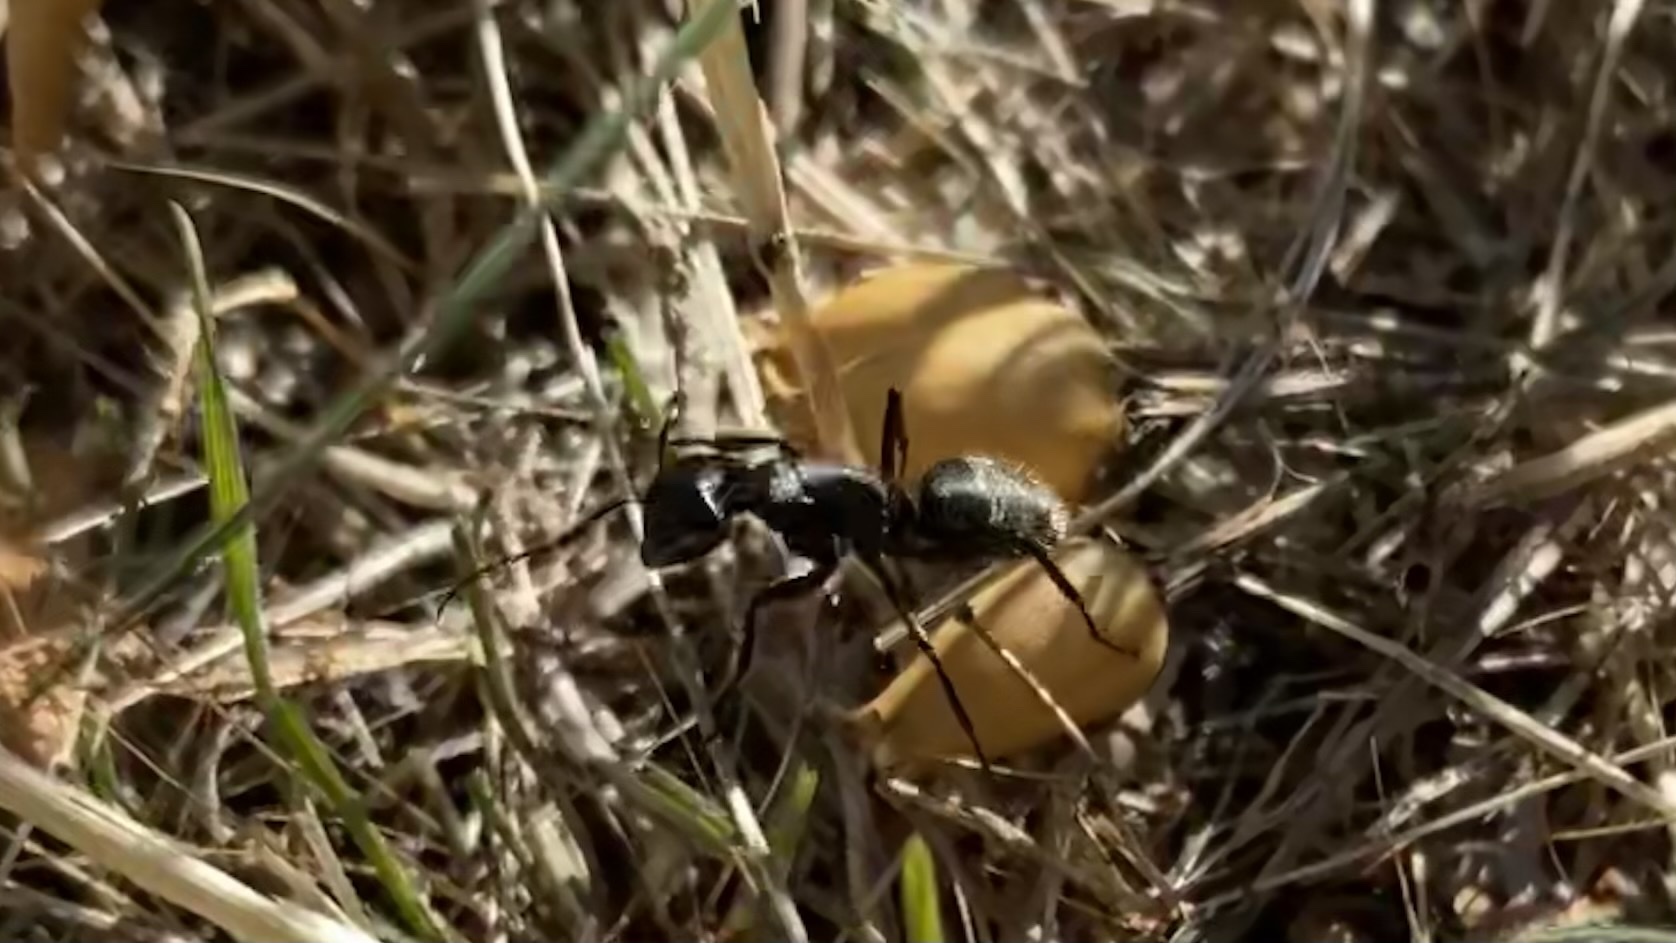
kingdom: Animalia
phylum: Arthropoda
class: Insecta
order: Hymenoptera
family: Formicidae
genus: Camponotus
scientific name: Camponotus vagus
